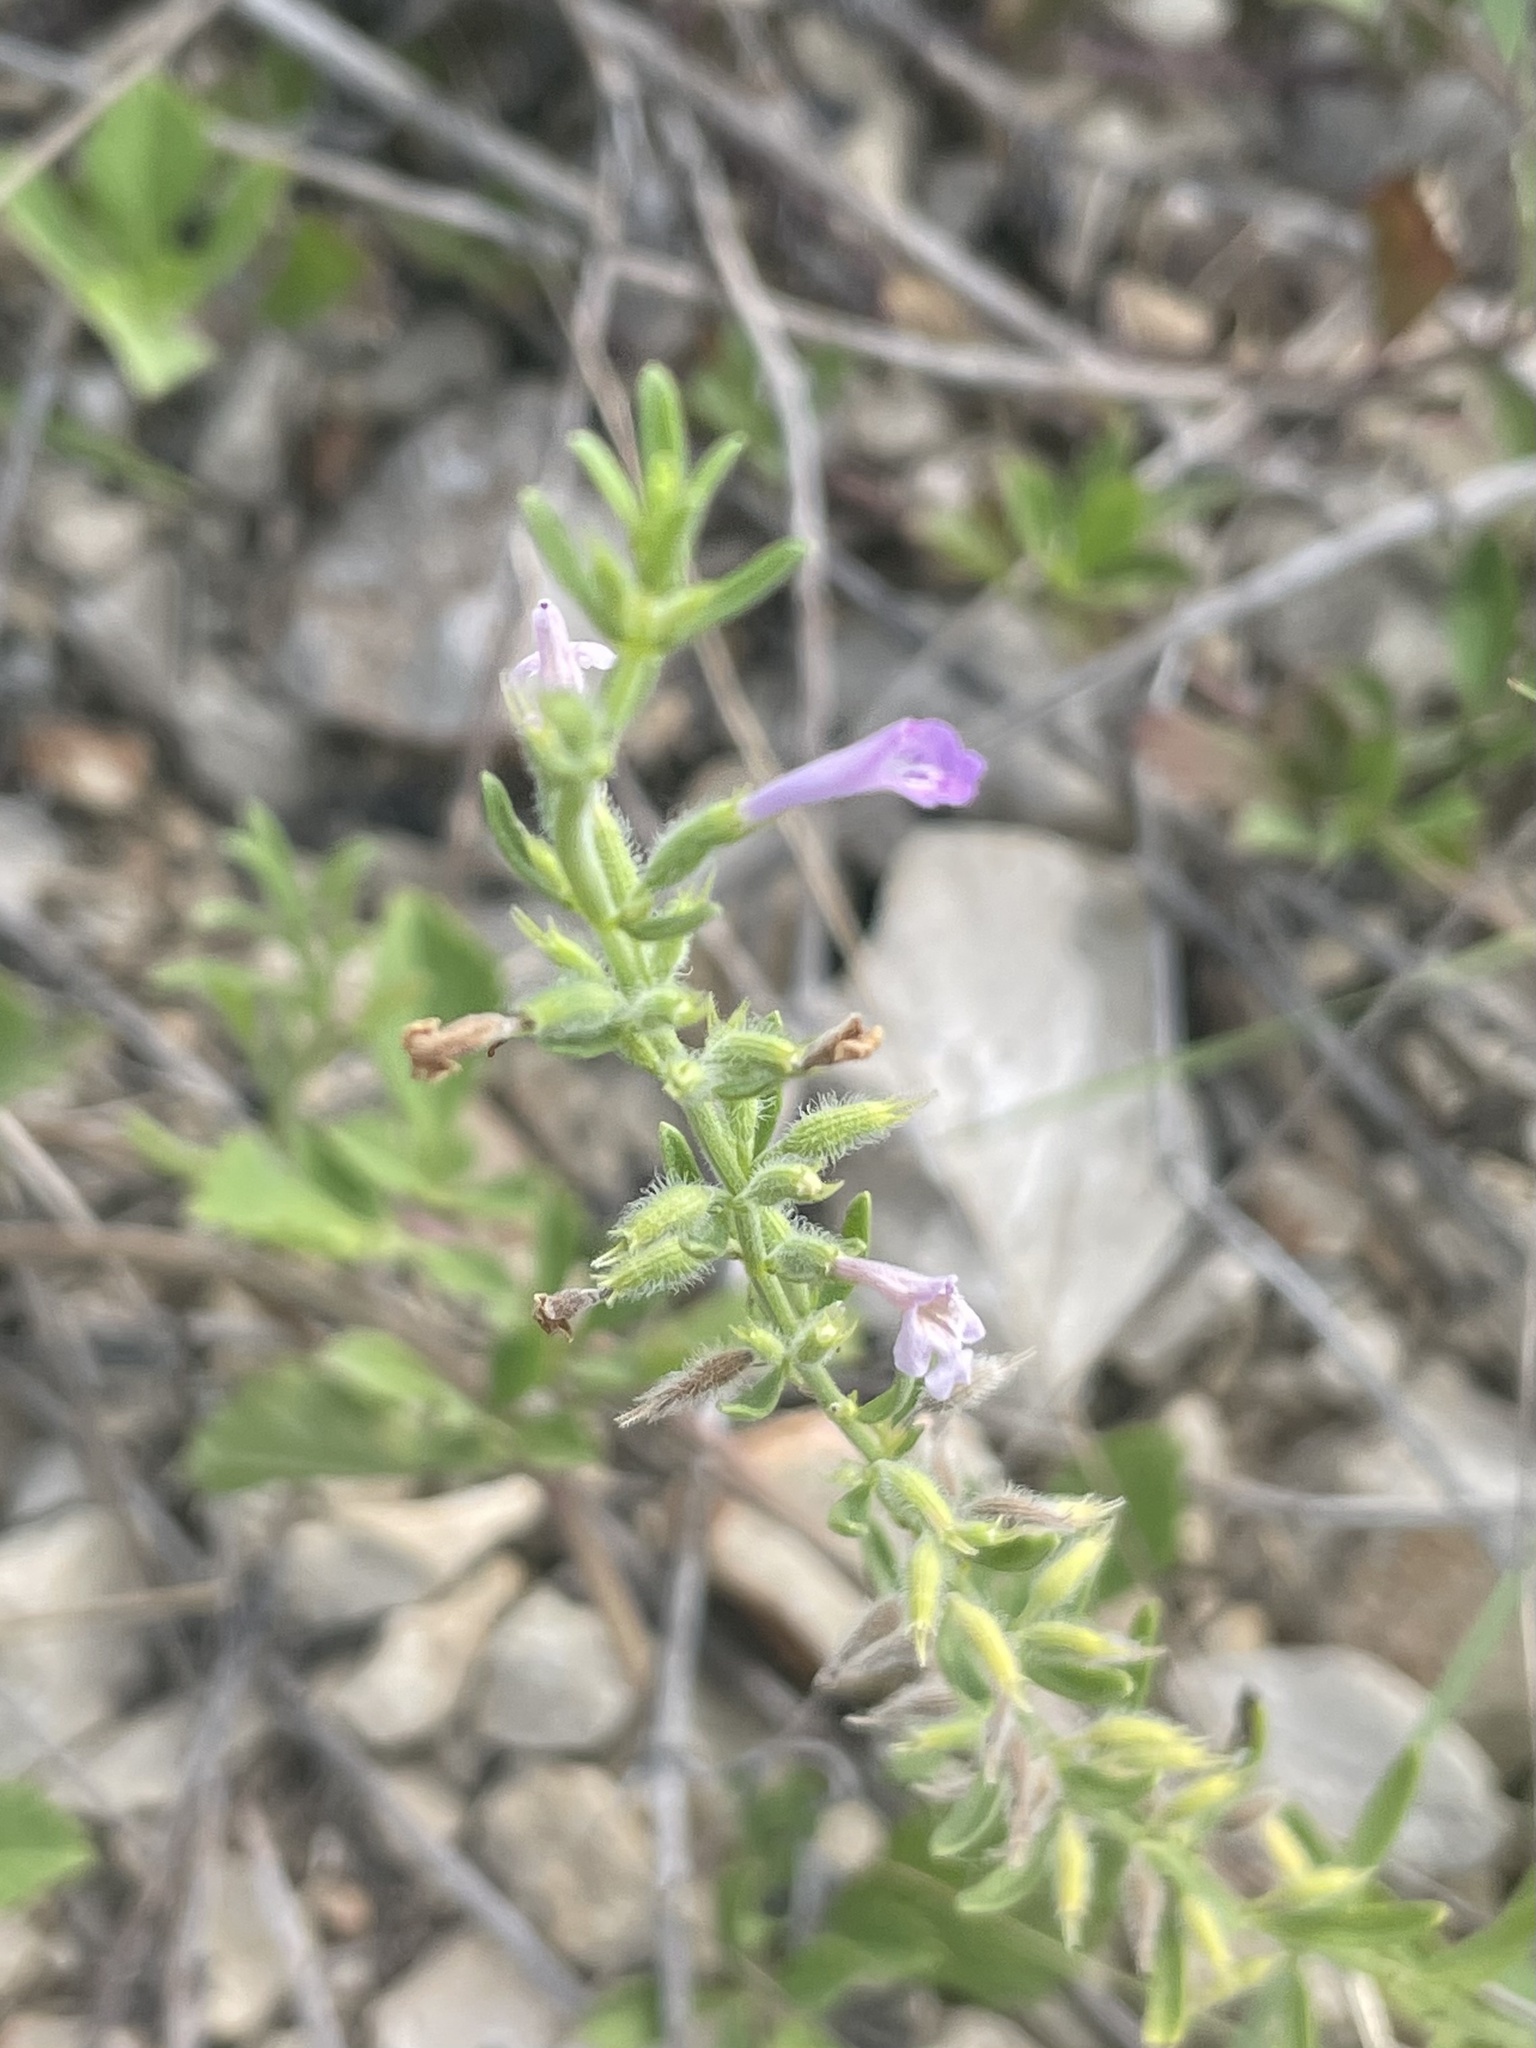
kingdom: Plantae
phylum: Tracheophyta
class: Magnoliopsida
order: Lamiales
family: Lamiaceae
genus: Hedeoma
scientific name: Hedeoma reverchonii
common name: Reverchon's false penny-royal
